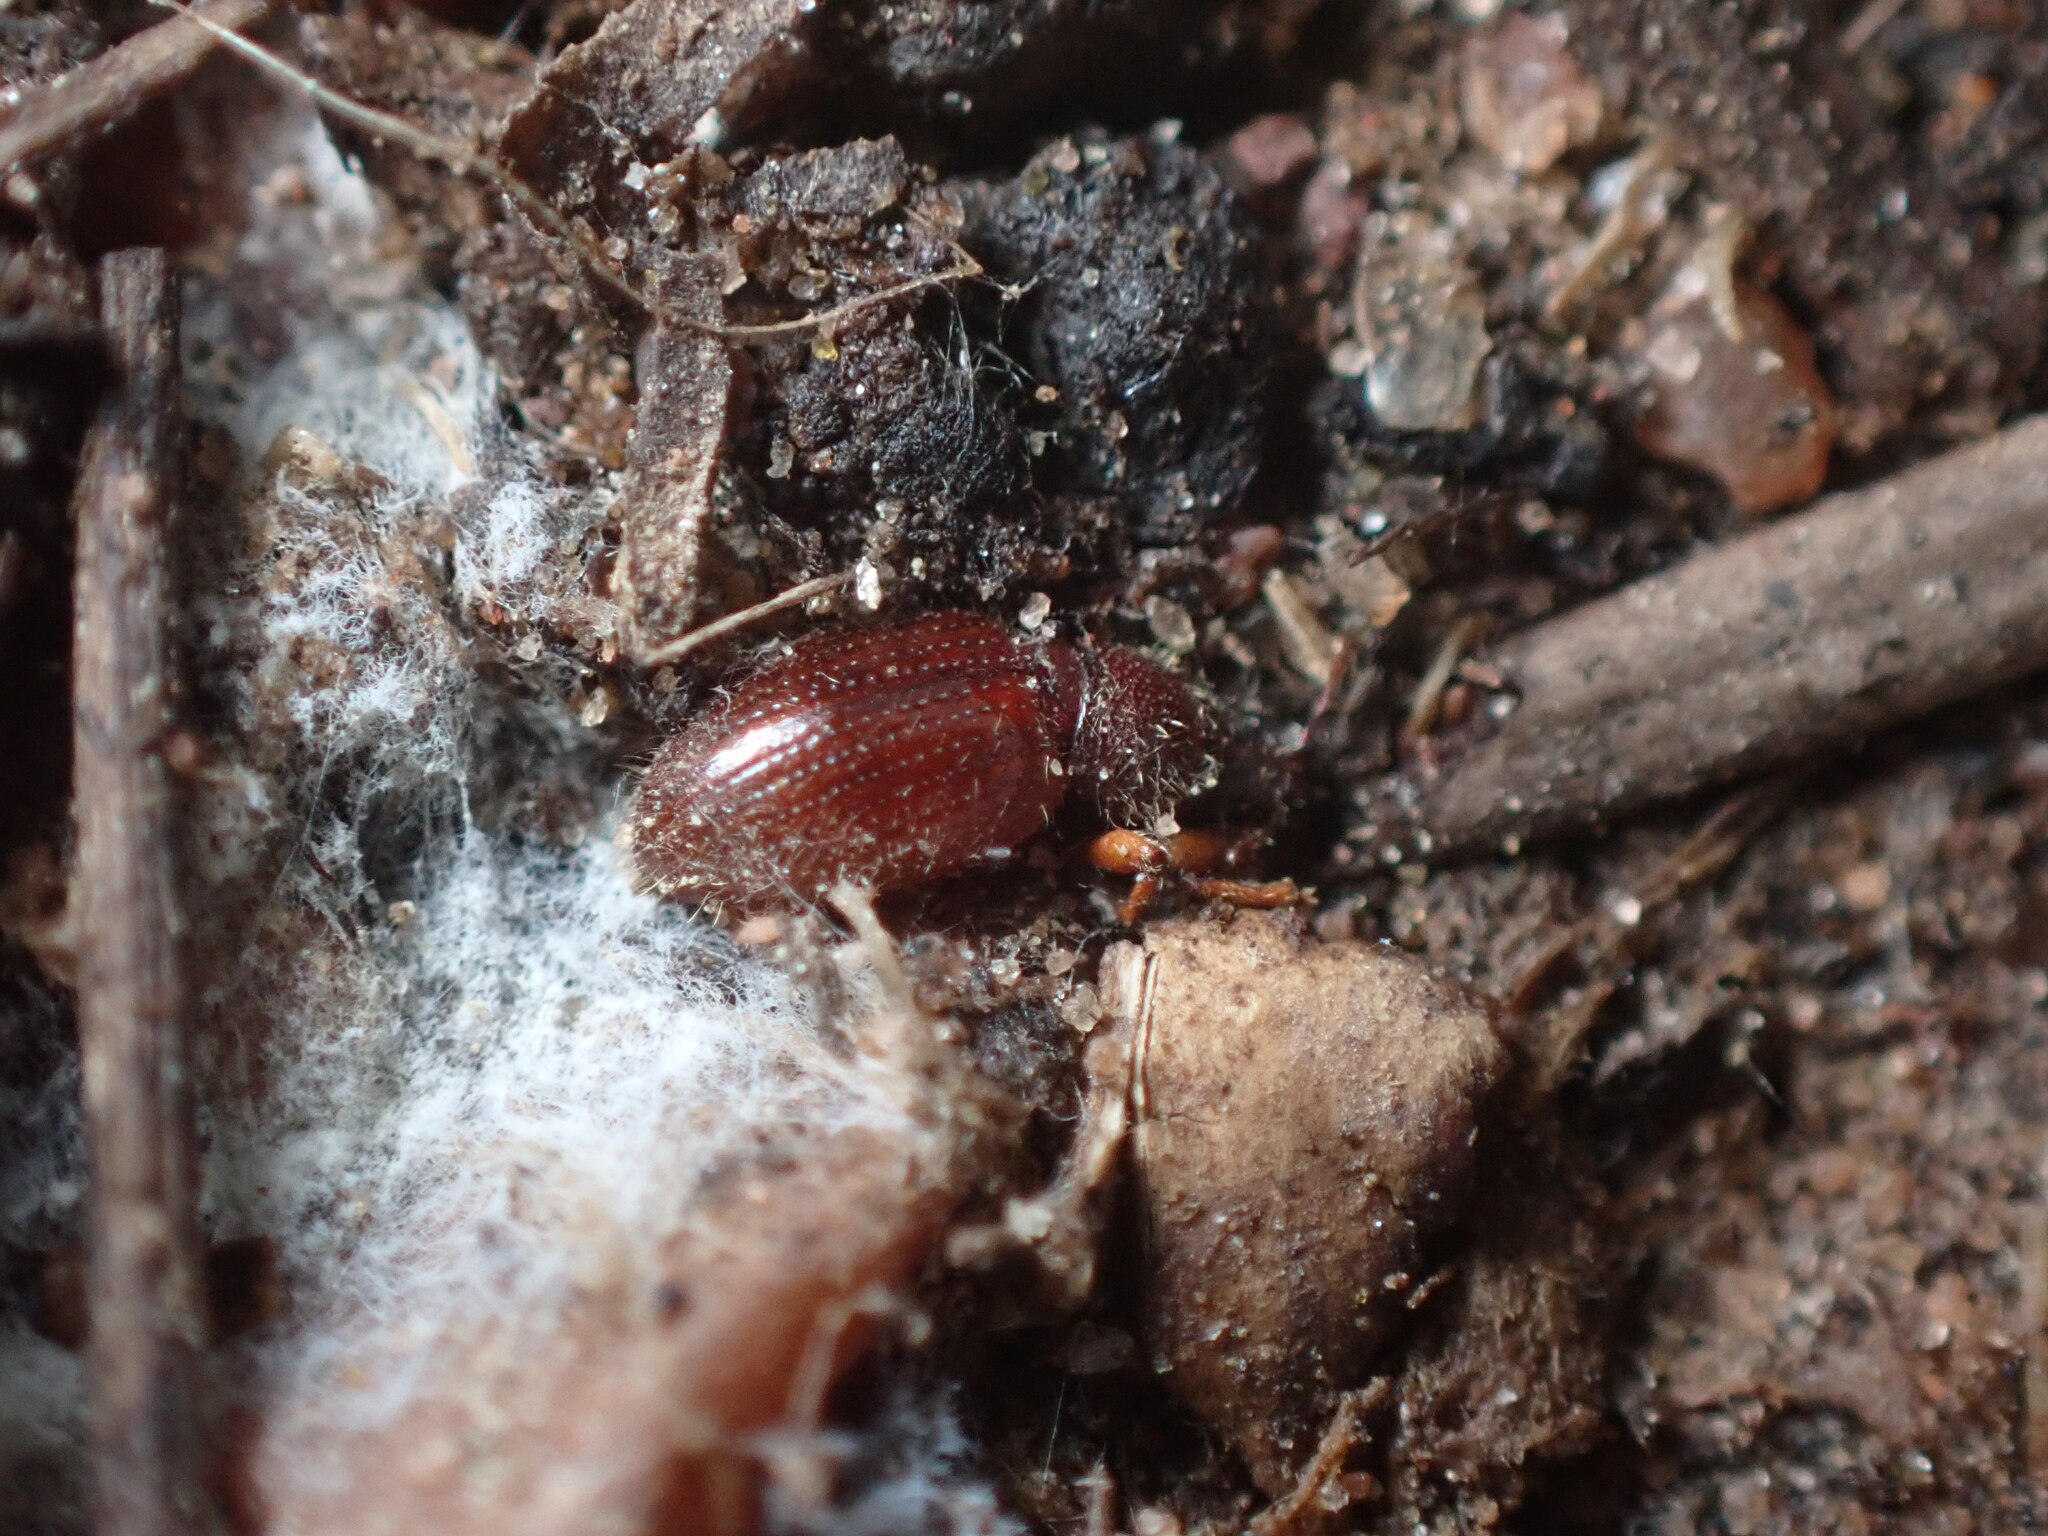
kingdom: Animalia
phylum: Arthropoda
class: Insecta
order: Coleoptera
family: Curculionidae
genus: Exomias
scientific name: Exomias pellucidus
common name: Hairy spider weevil
